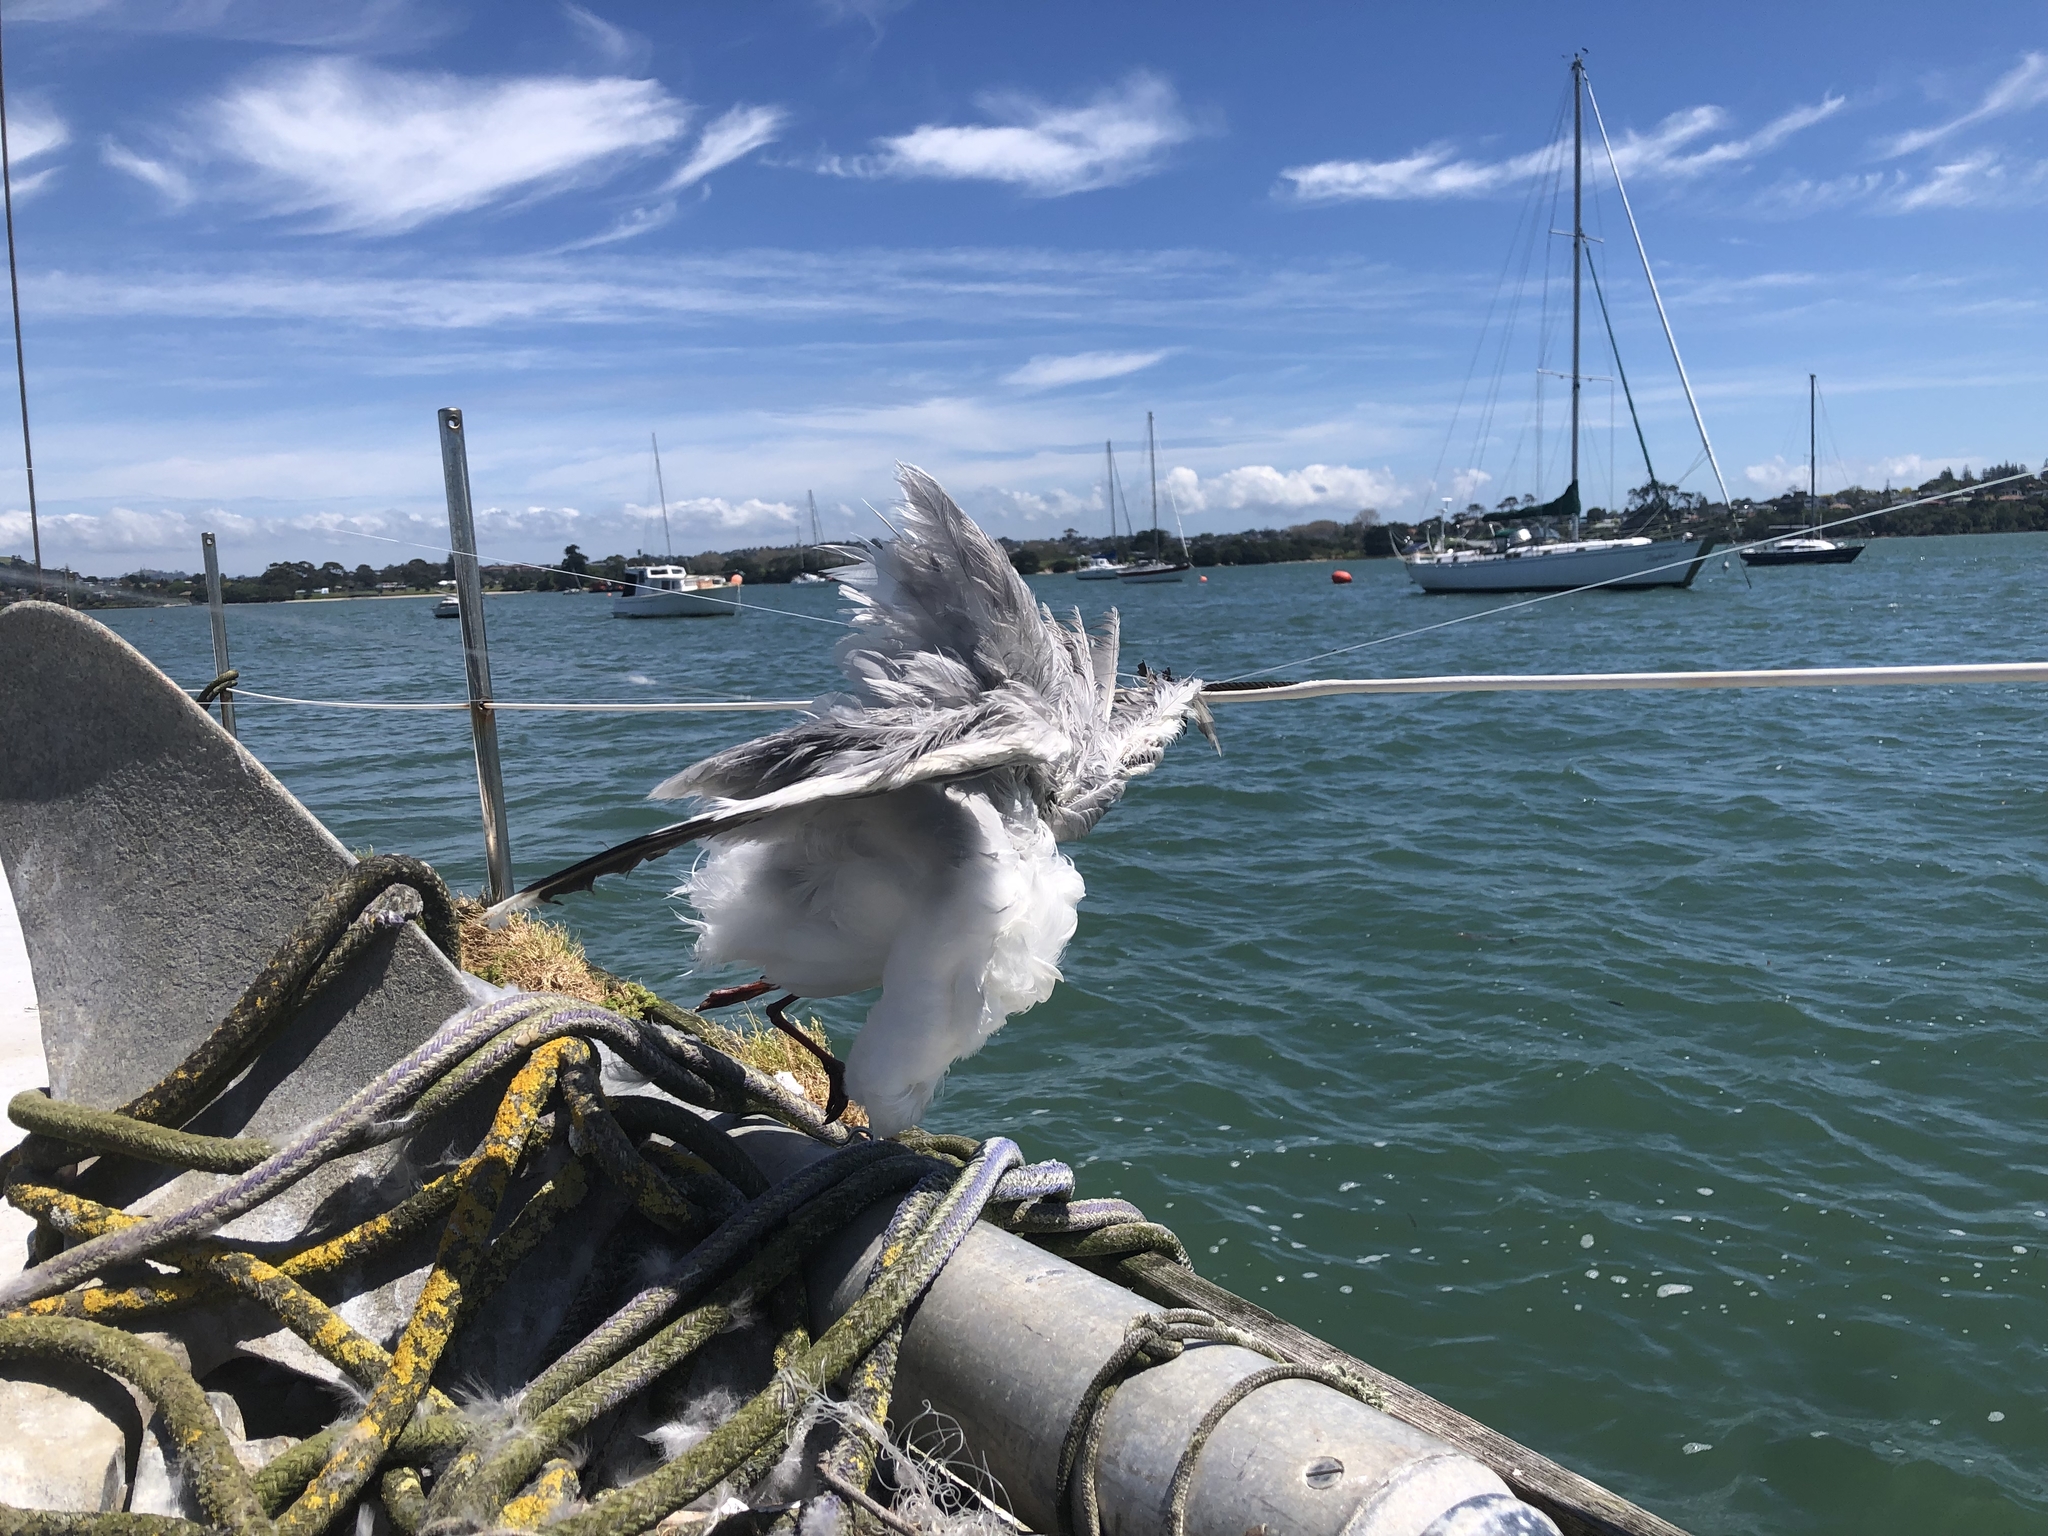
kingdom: Animalia
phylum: Chordata
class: Aves
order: Charadriiformes
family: Laridae
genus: Chroicocephalus
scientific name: Chroicocephalus novaehollandiae
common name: Silver gull
